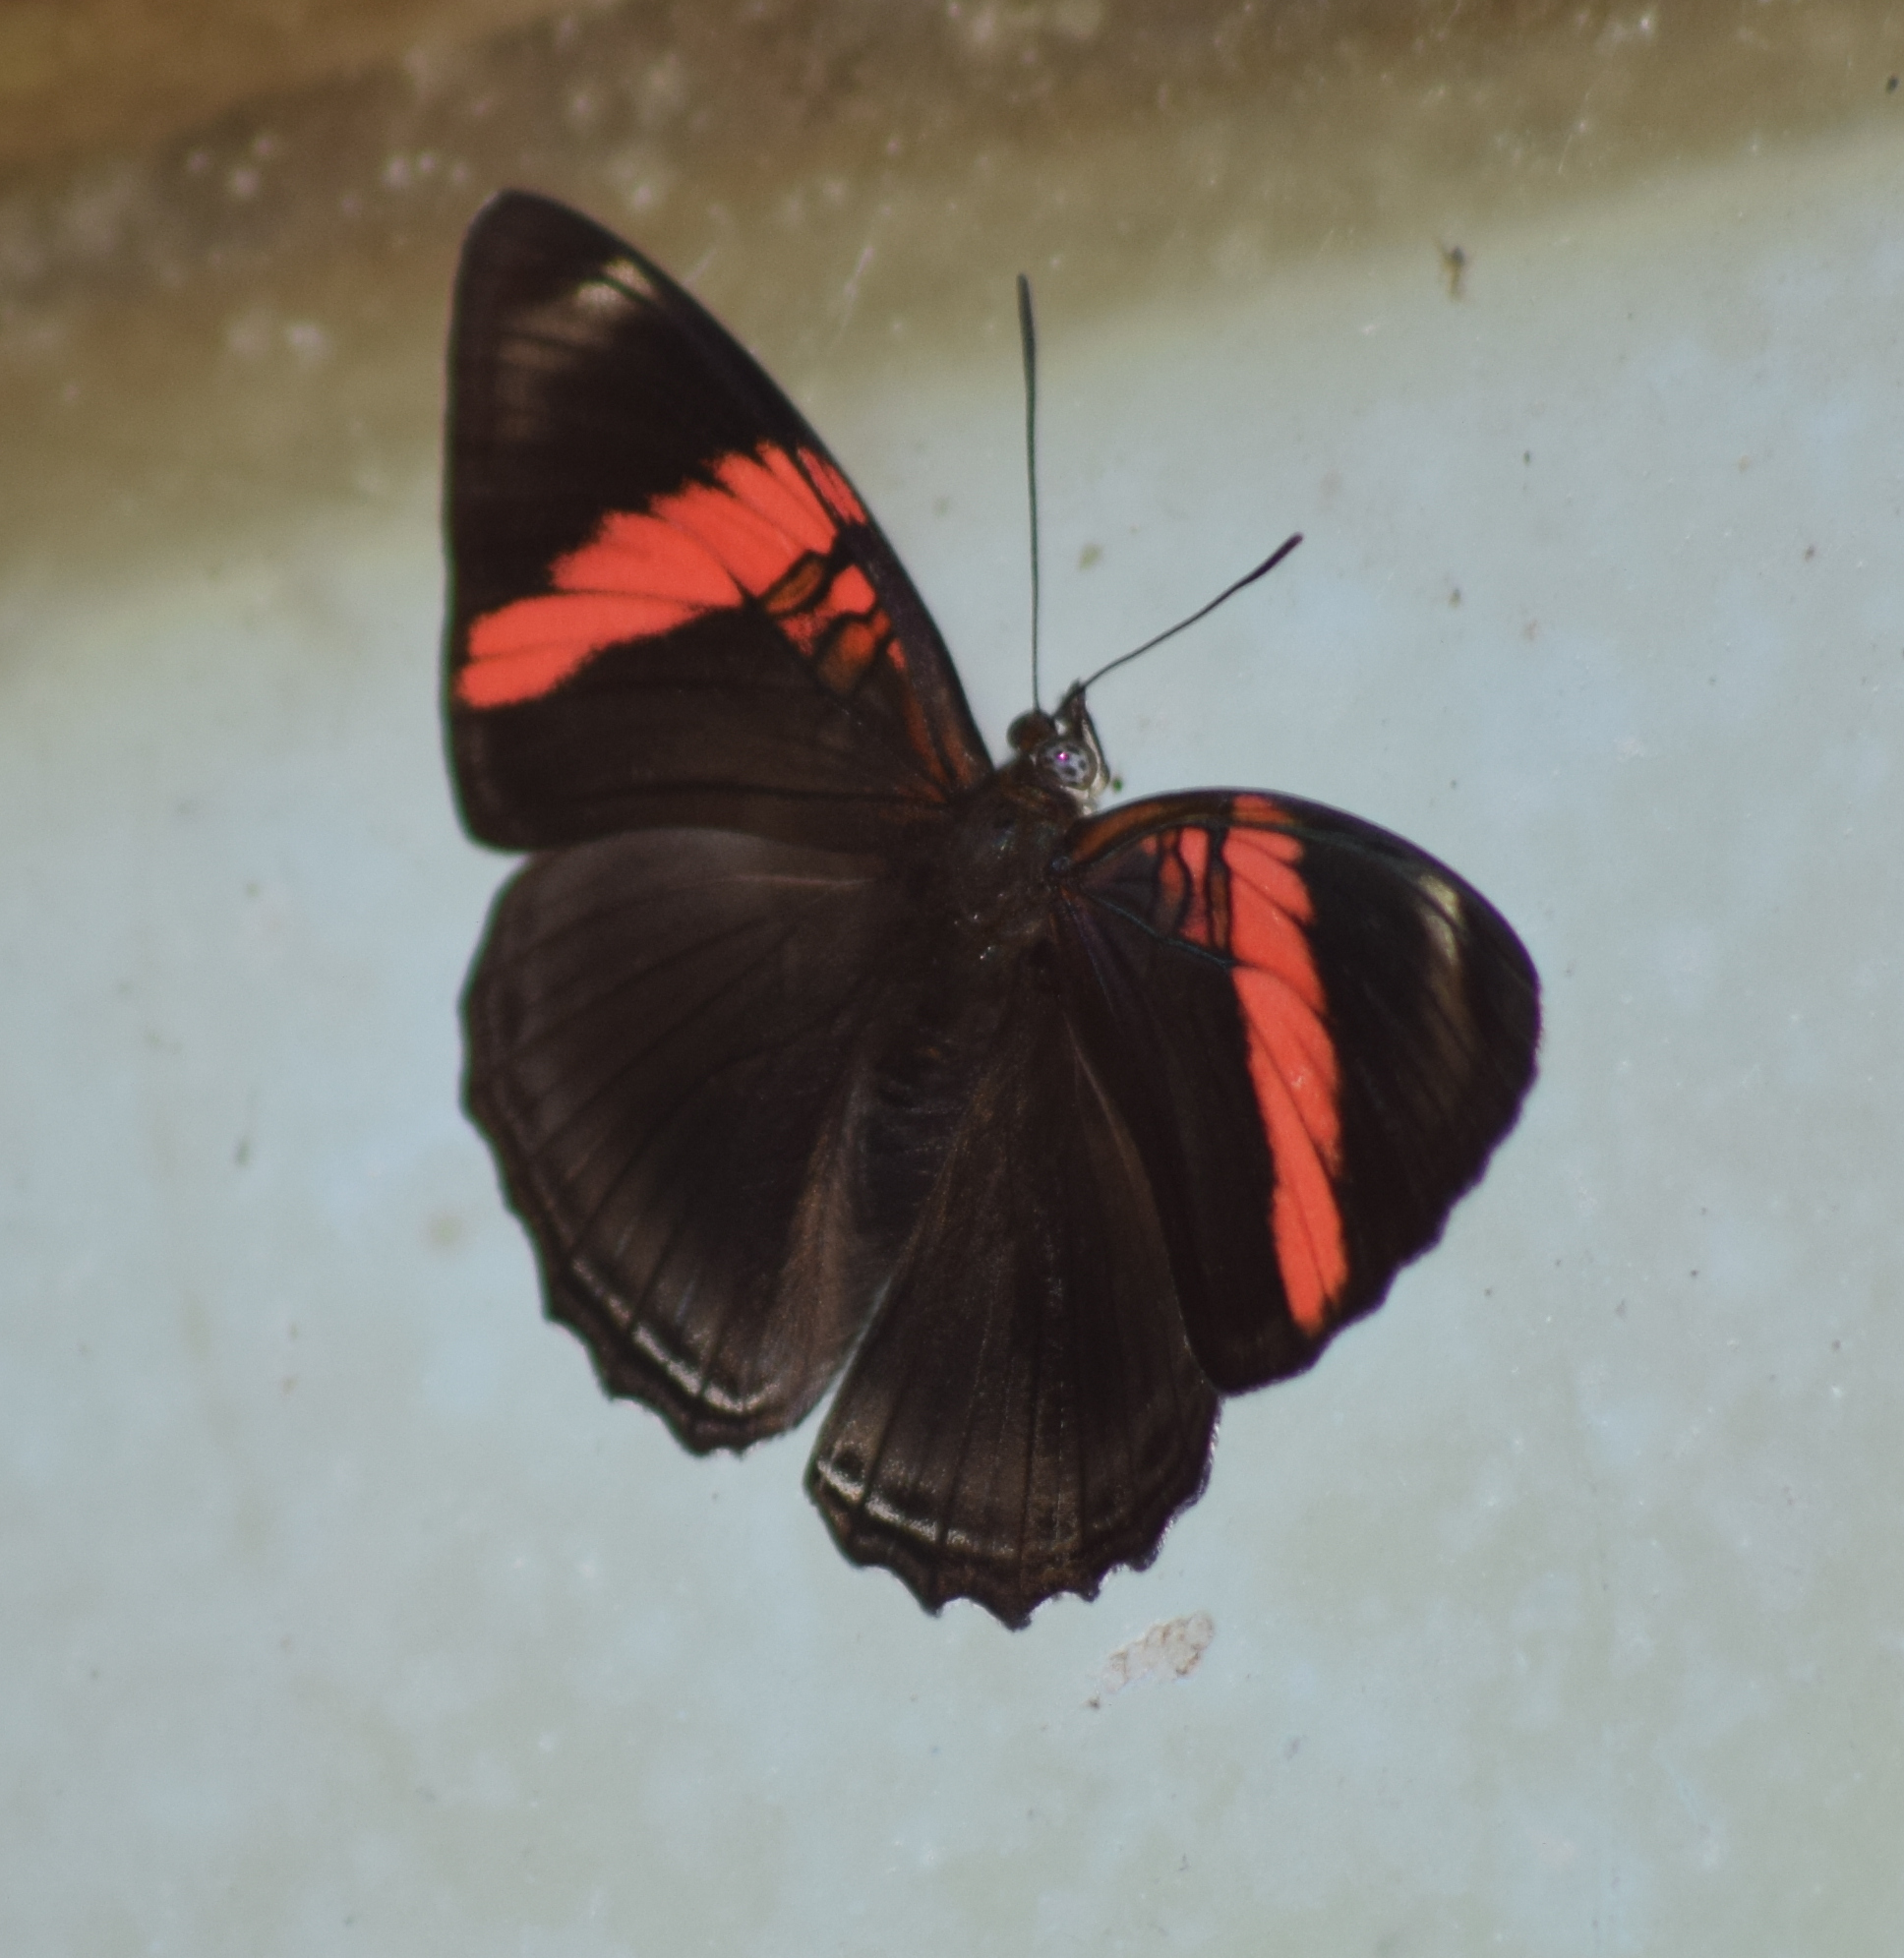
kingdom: Animalia
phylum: Arthropoda
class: Insecta
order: Lepidoptera
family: Nymphalidae
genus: Limenitis
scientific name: Limenitis isis
